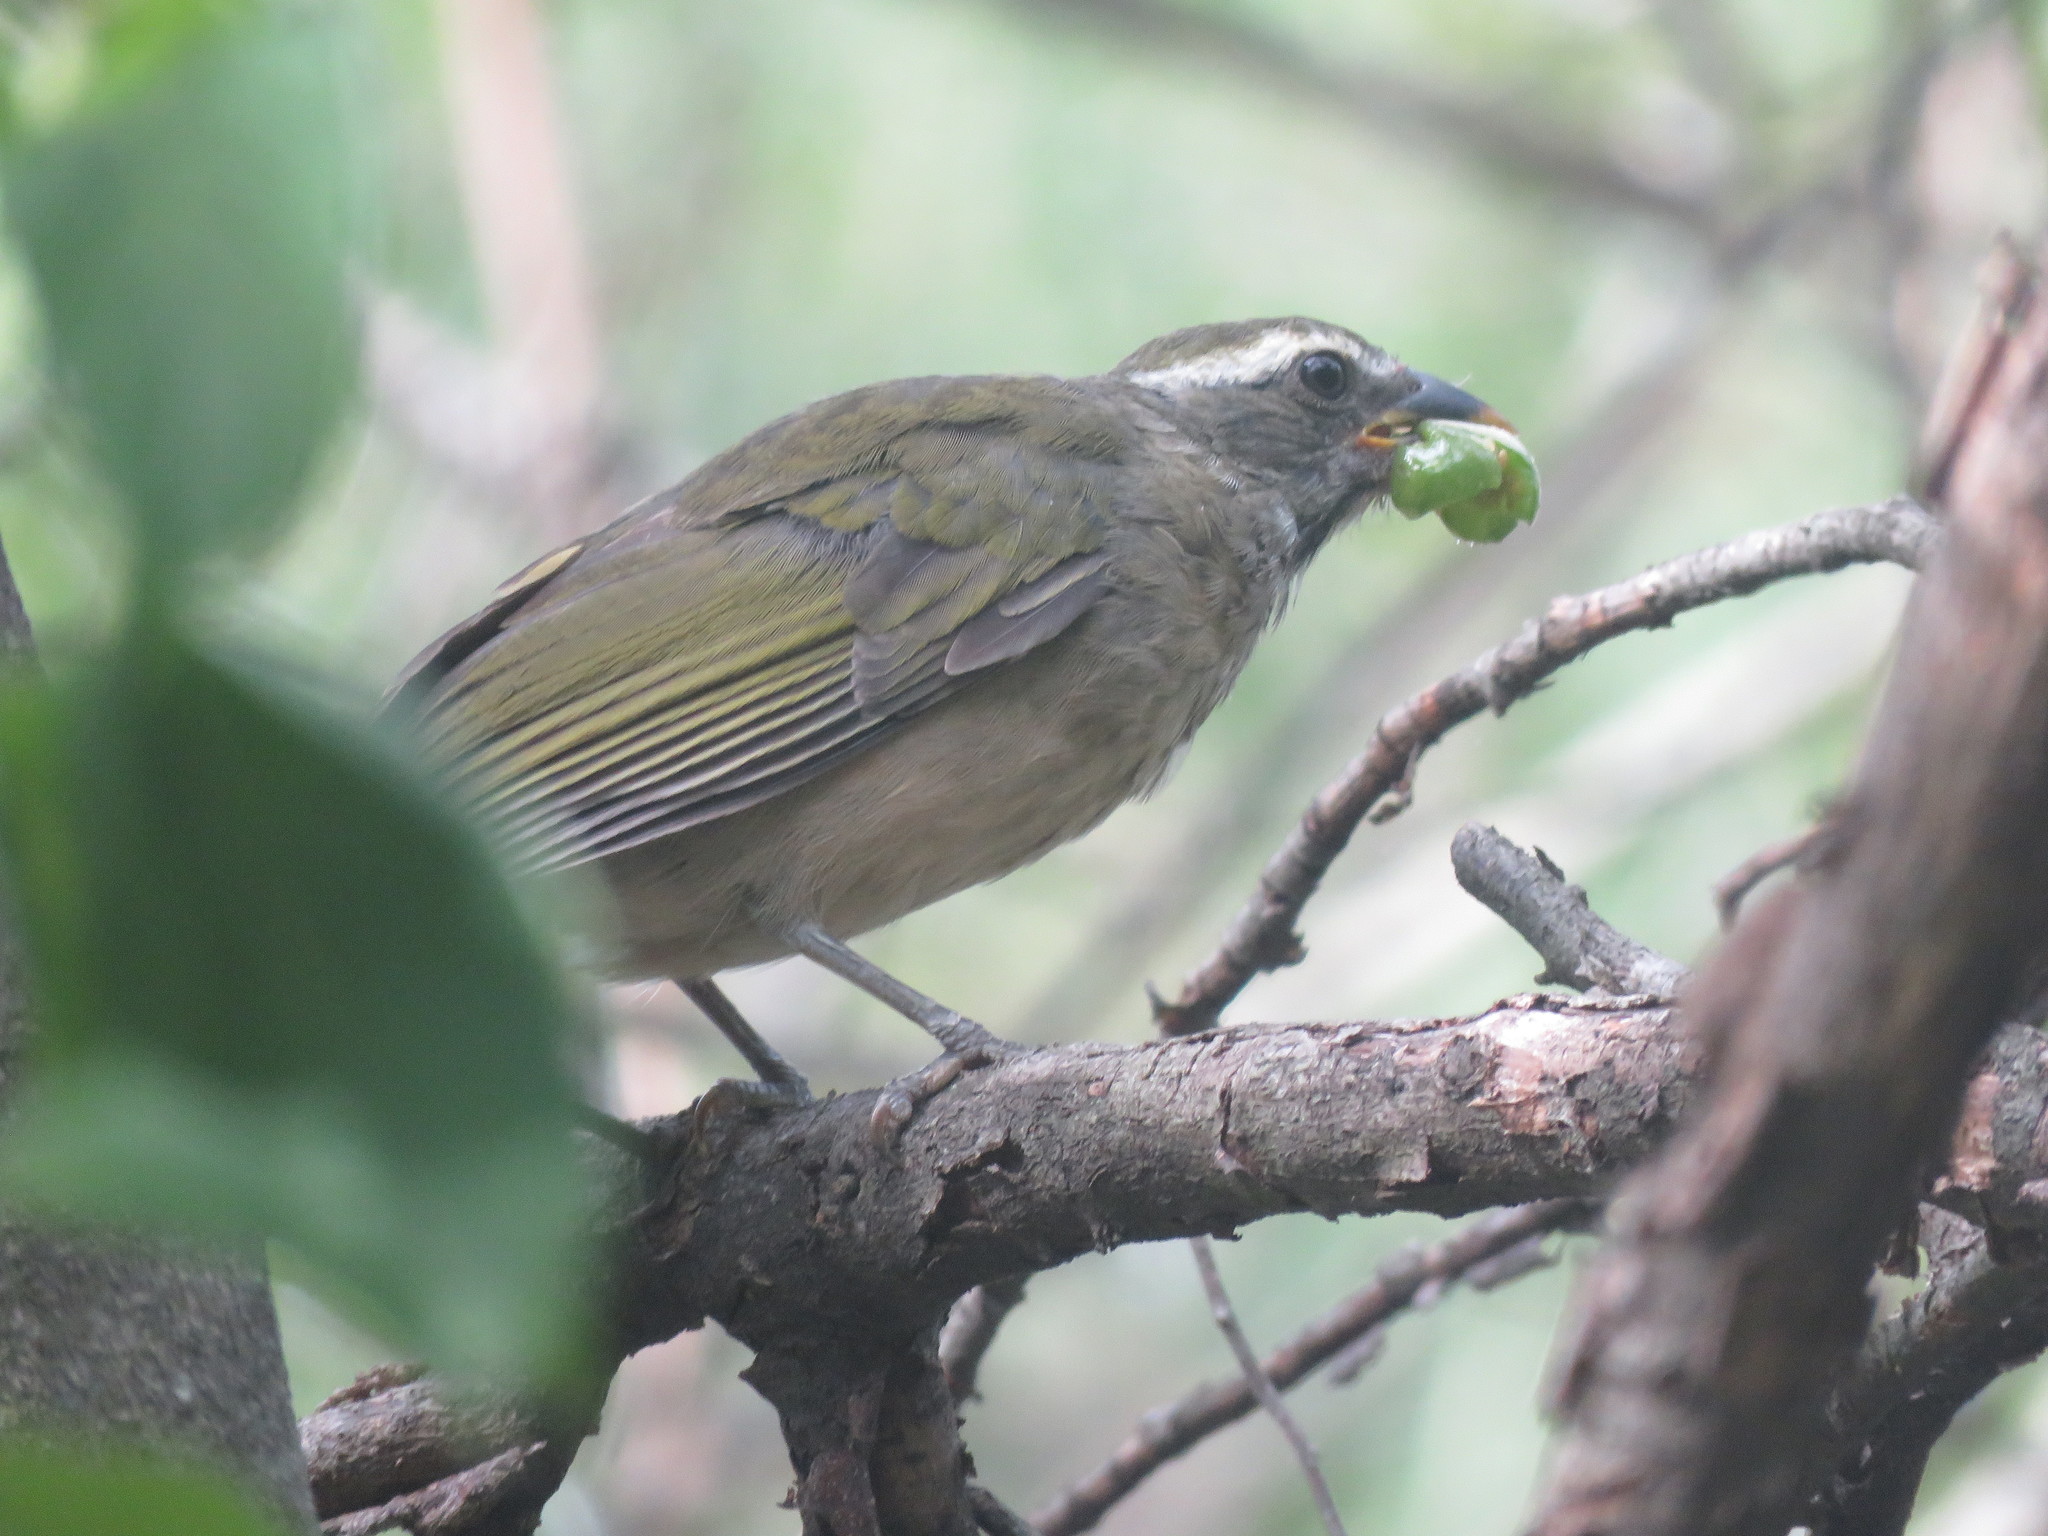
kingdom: Animalia
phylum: Chordata
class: Aves
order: Passeriformes
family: Thraupidae
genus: Saltator
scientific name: Saltator similis
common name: Green-winged saltator
